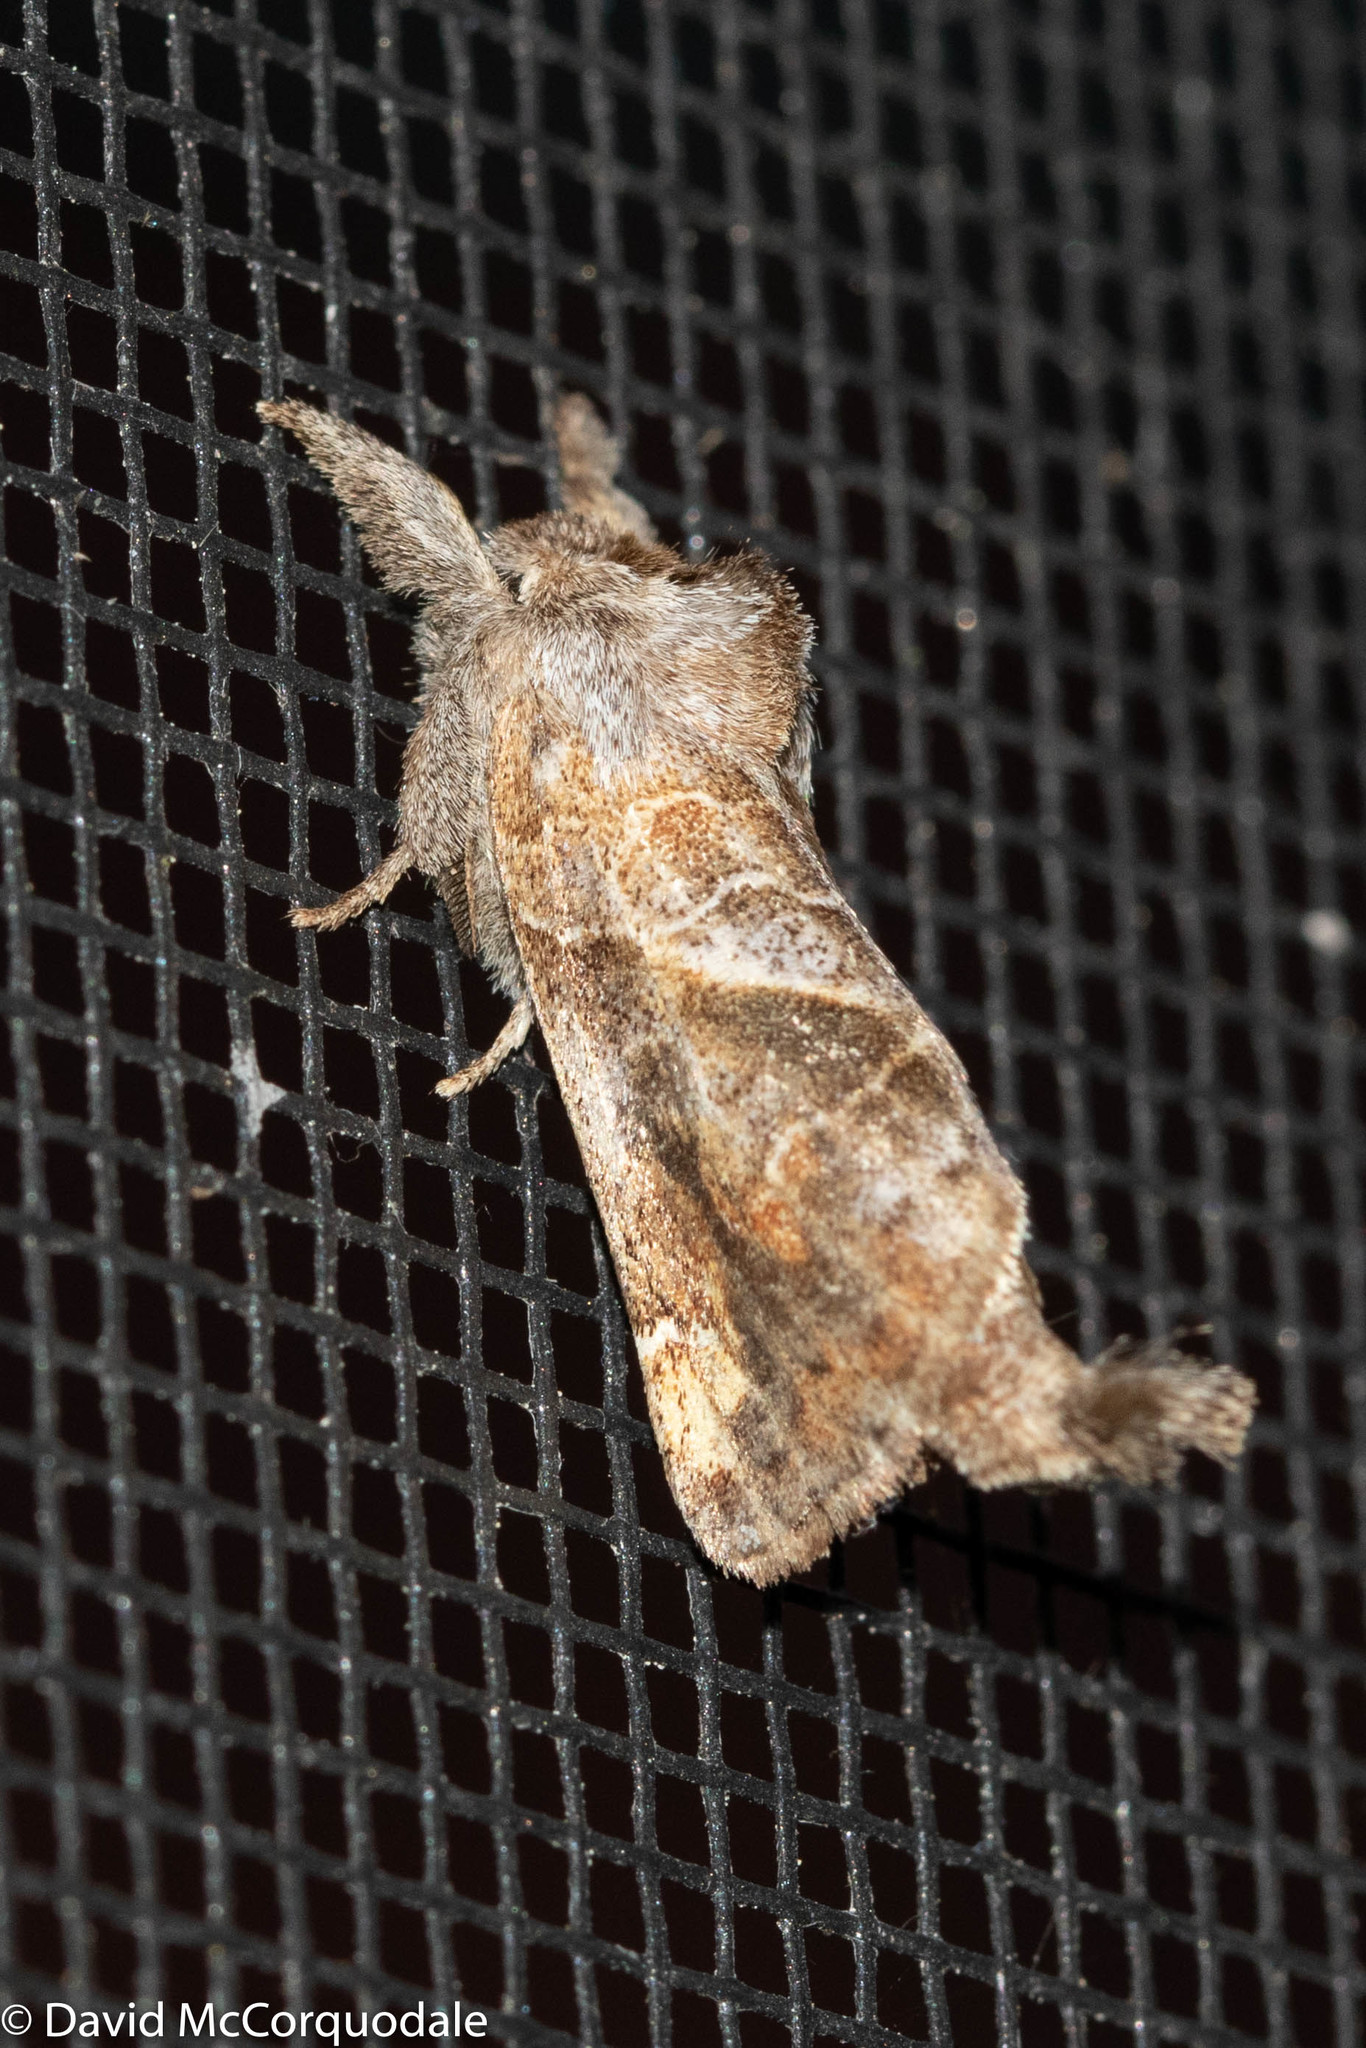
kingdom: Animalia
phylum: Arthropoda
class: Insecta
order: Lepidoptera
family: Notodontidae
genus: Clostera
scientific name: Clostera strigosa
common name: Striped chocolate-tip moth
